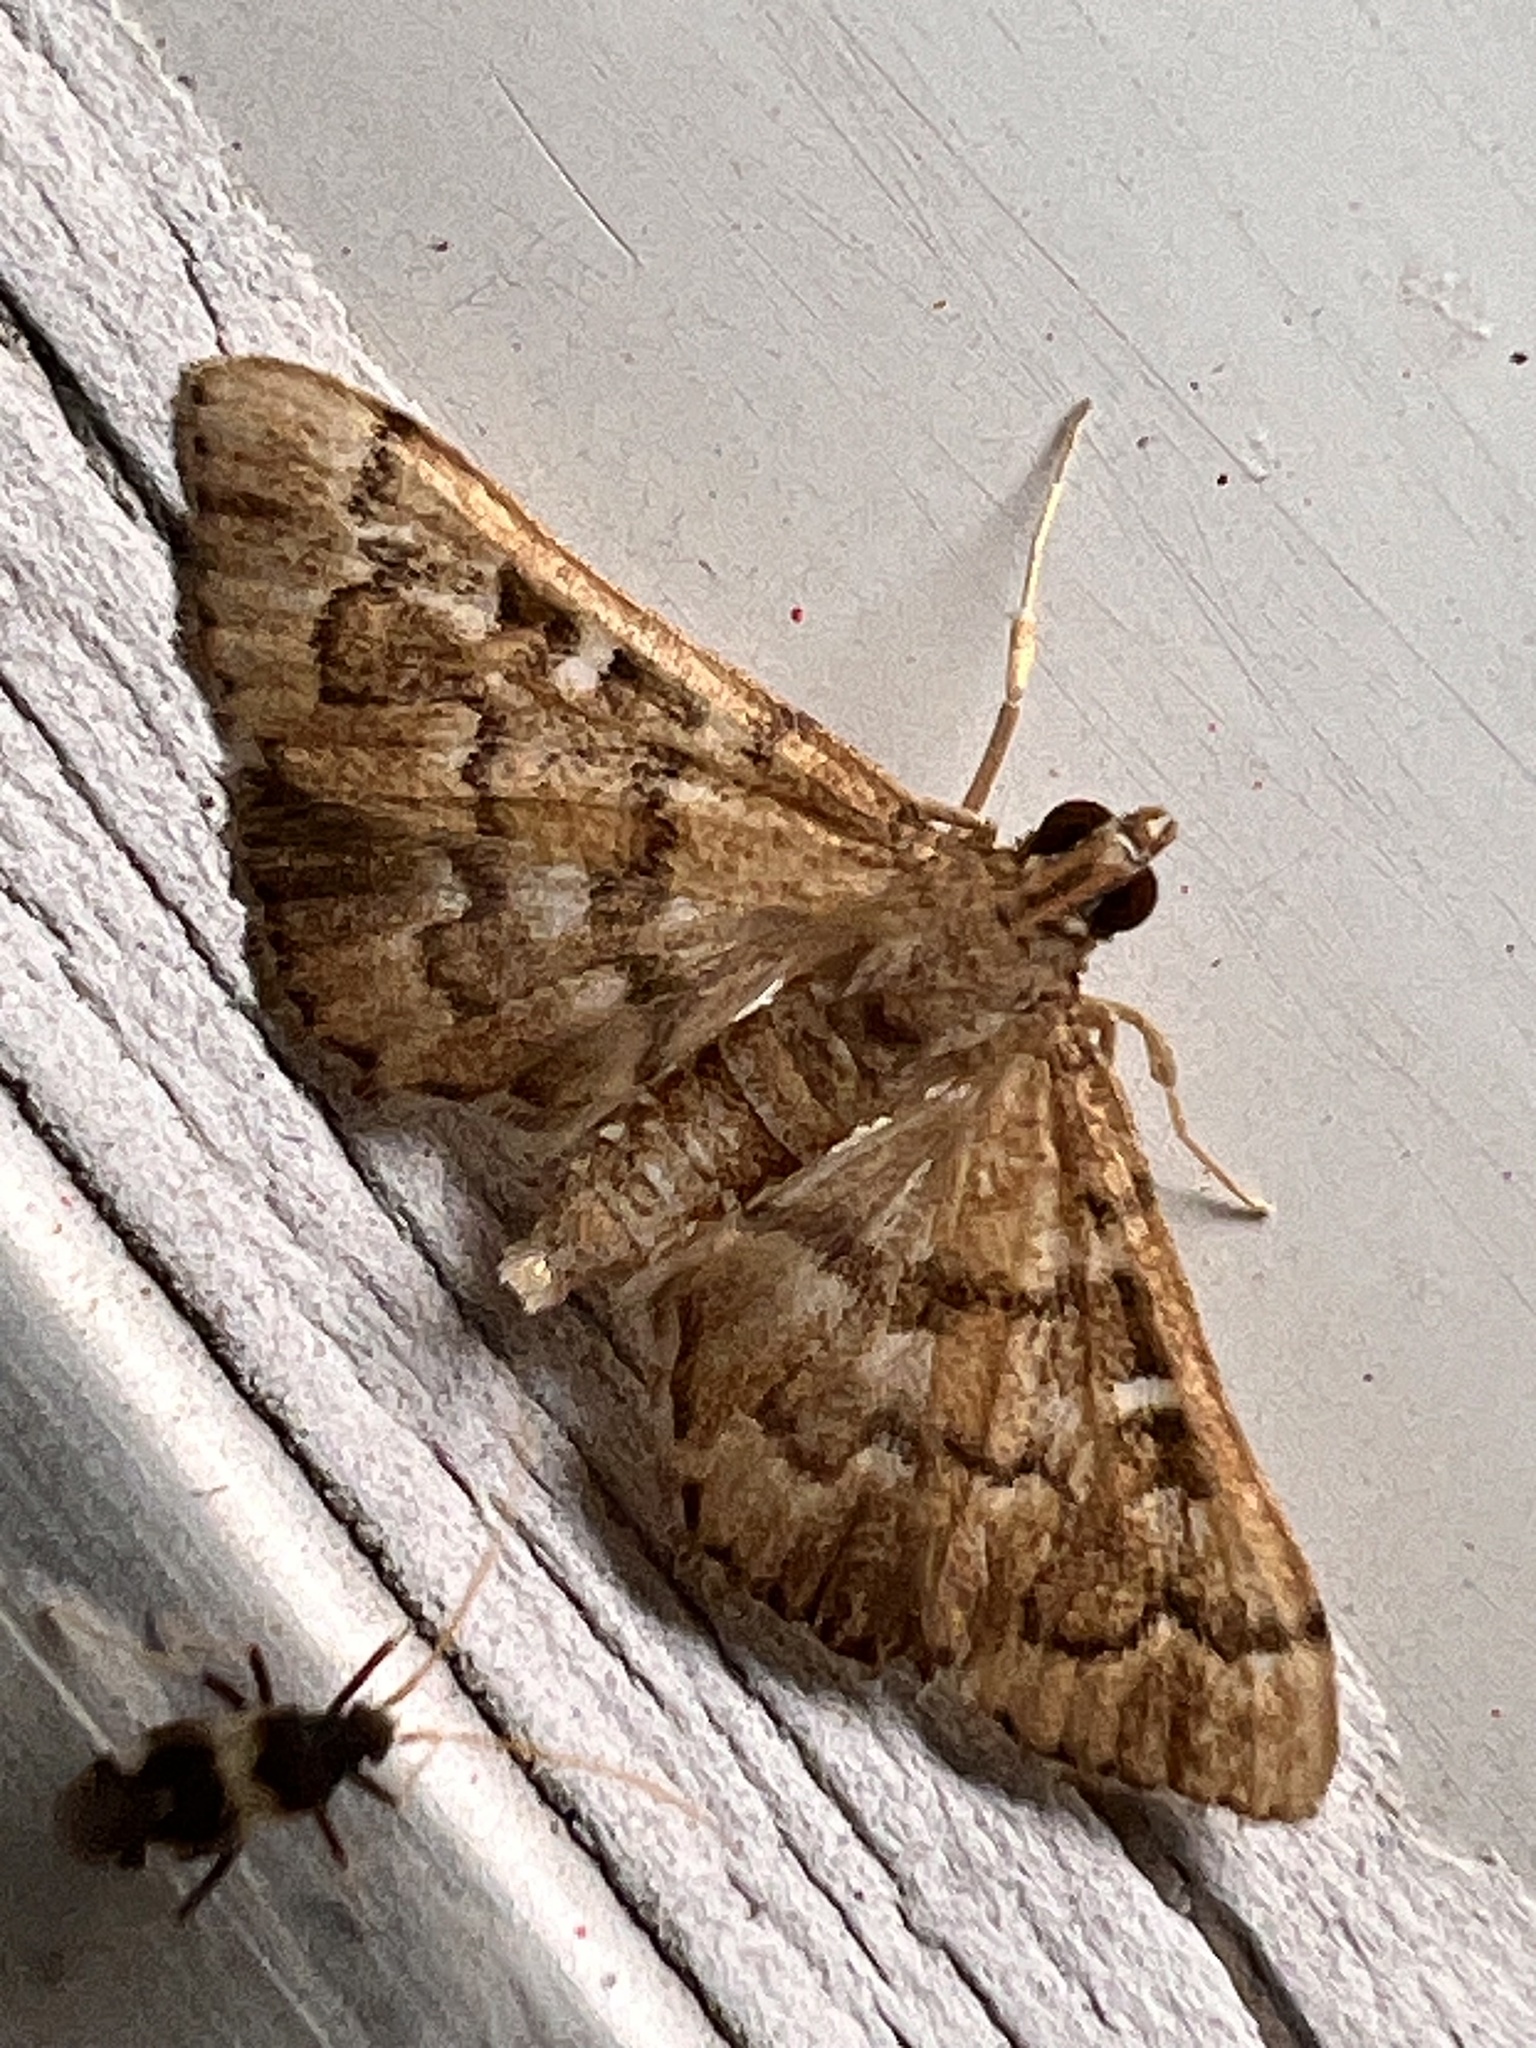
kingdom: Animalia
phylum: Arthropoda
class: Insecta
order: Lepidoptera
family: Crambidae
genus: Nacoleia
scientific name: Nacoleia rhoeoalis
